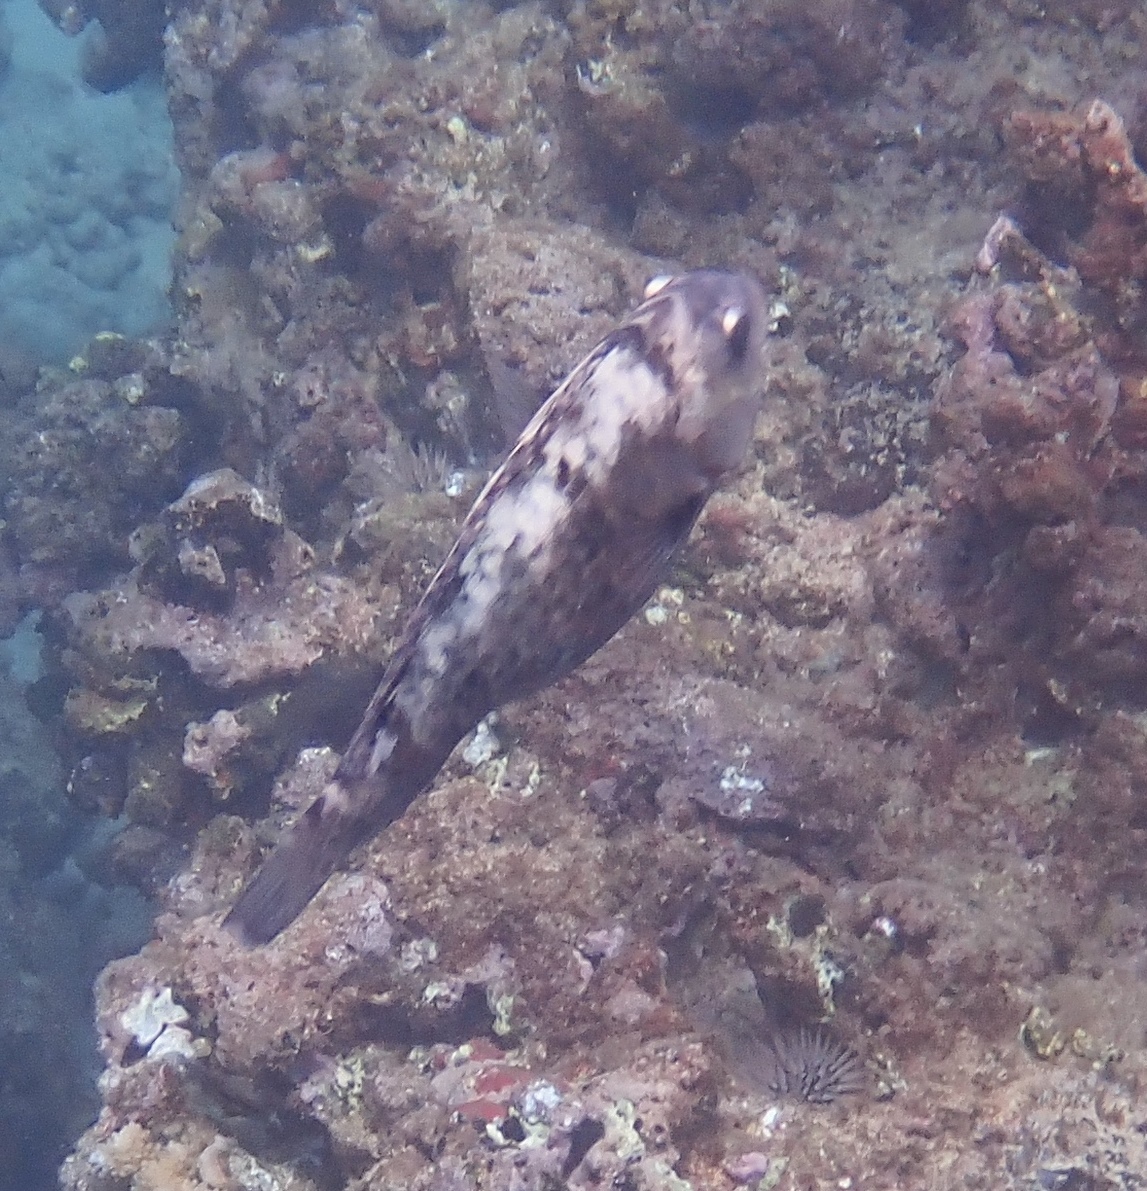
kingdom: Animalia
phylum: Chordata
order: Perciformes
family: Scaridae
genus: Calotomus
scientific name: Calotomus carolinus
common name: Bucktooth
